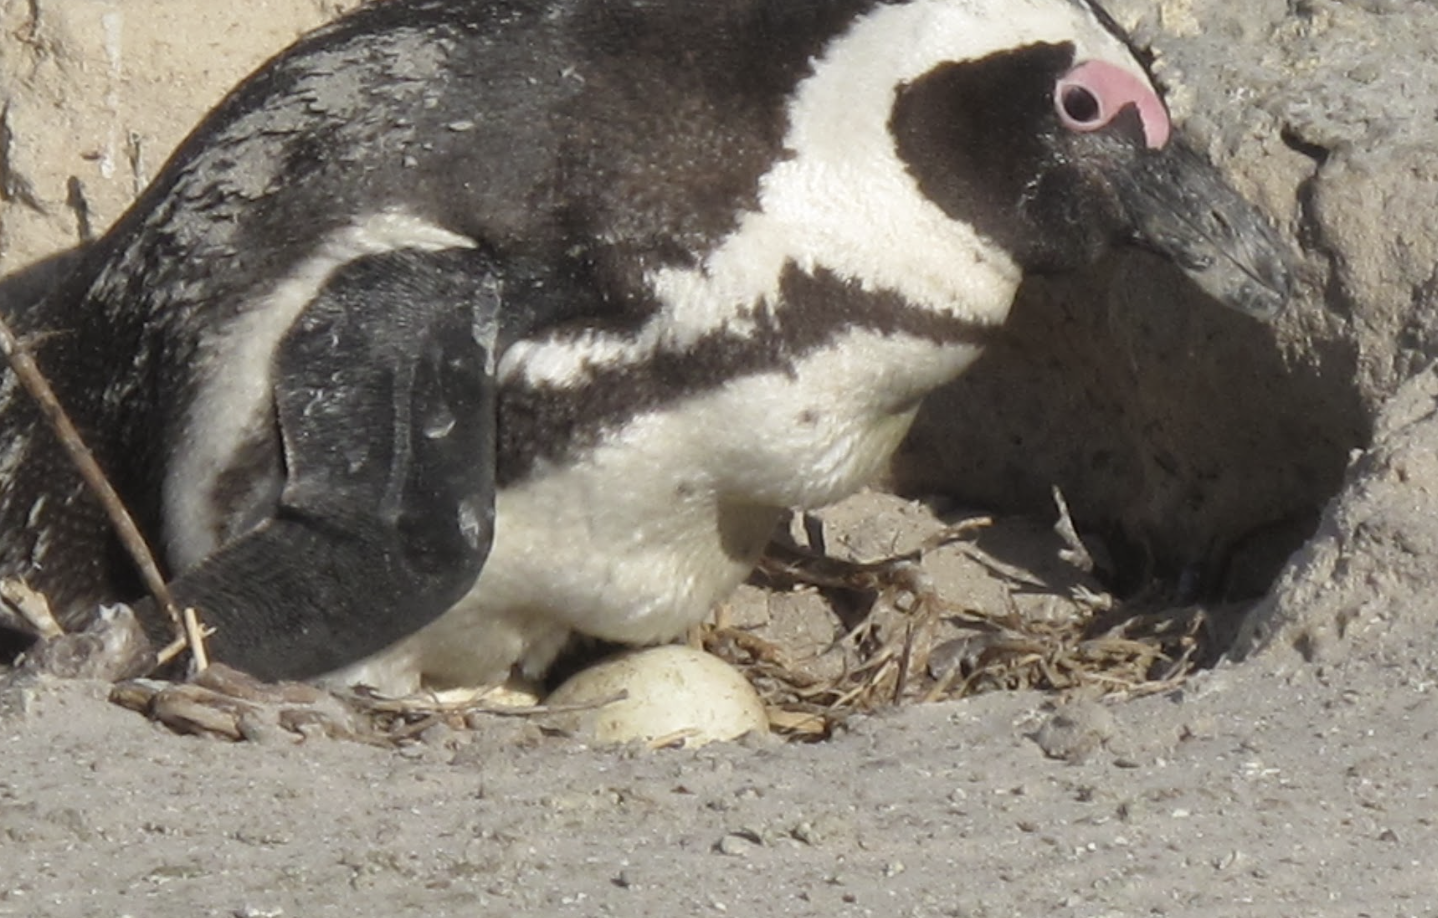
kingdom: Animalia
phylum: Chordata
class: Aves
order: Sphenisciformes
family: Spheniscidae
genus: Spheniscus
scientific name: Spheniscus demersus
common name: African penguin
